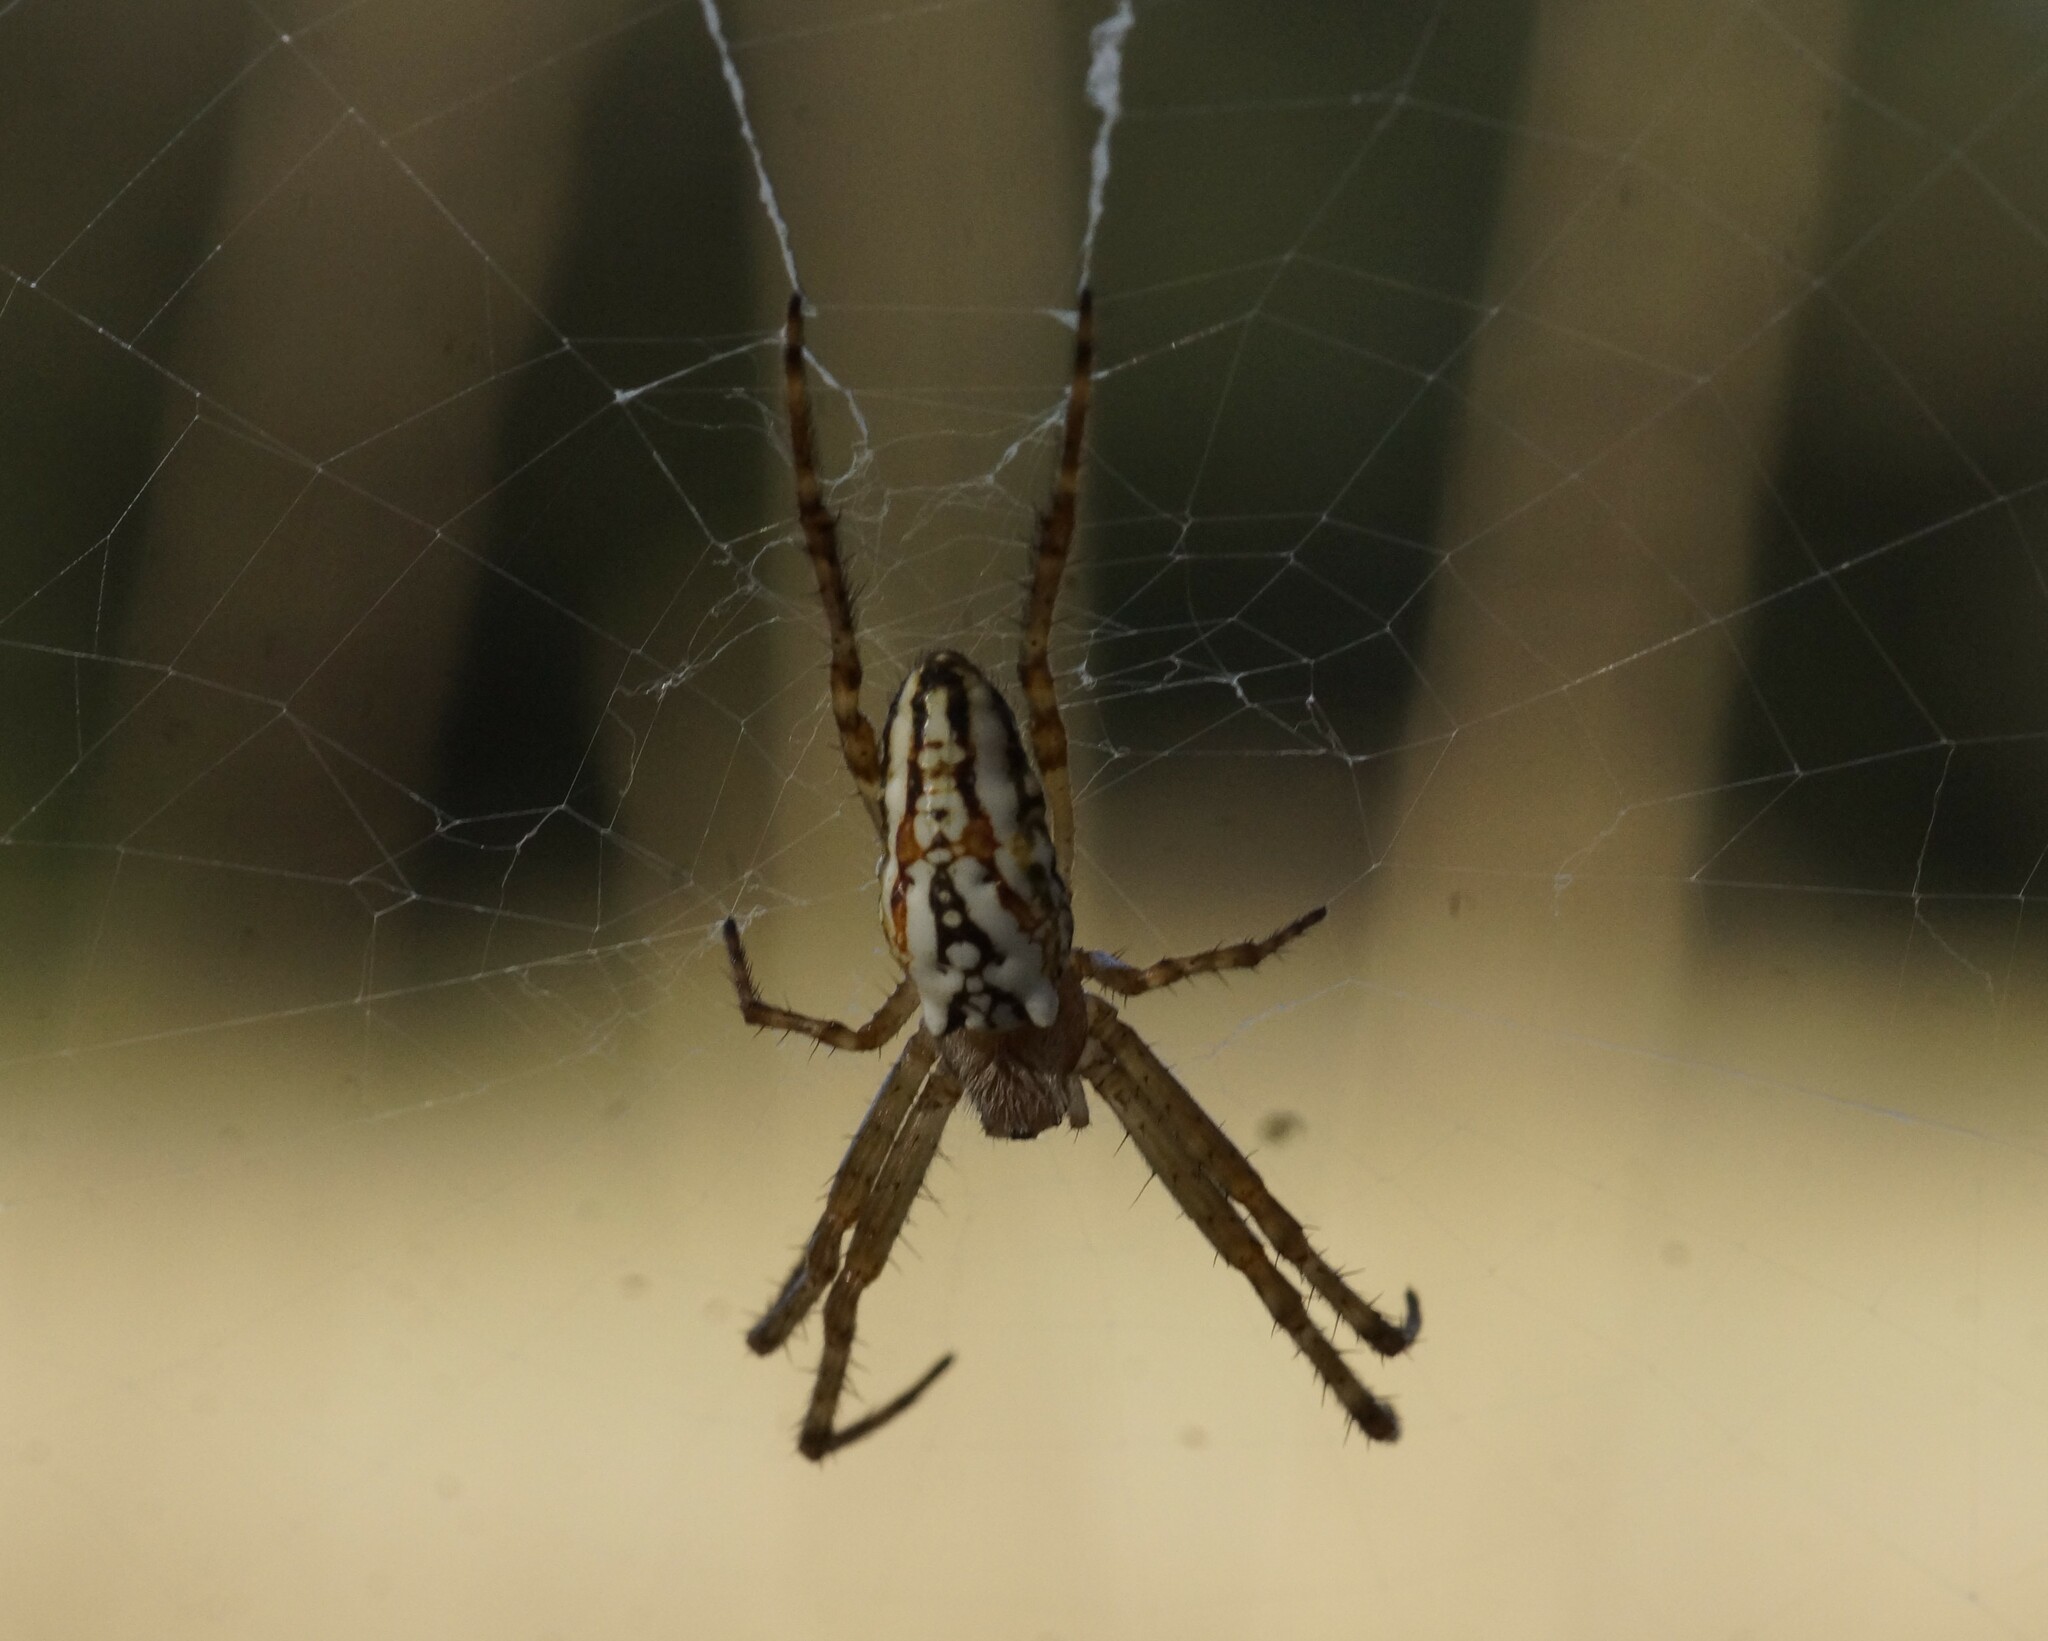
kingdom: Animalia
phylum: Arthropoda
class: Arachnida
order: Araneae
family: Araneidae
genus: Plebs
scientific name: Plebs bradleyi
